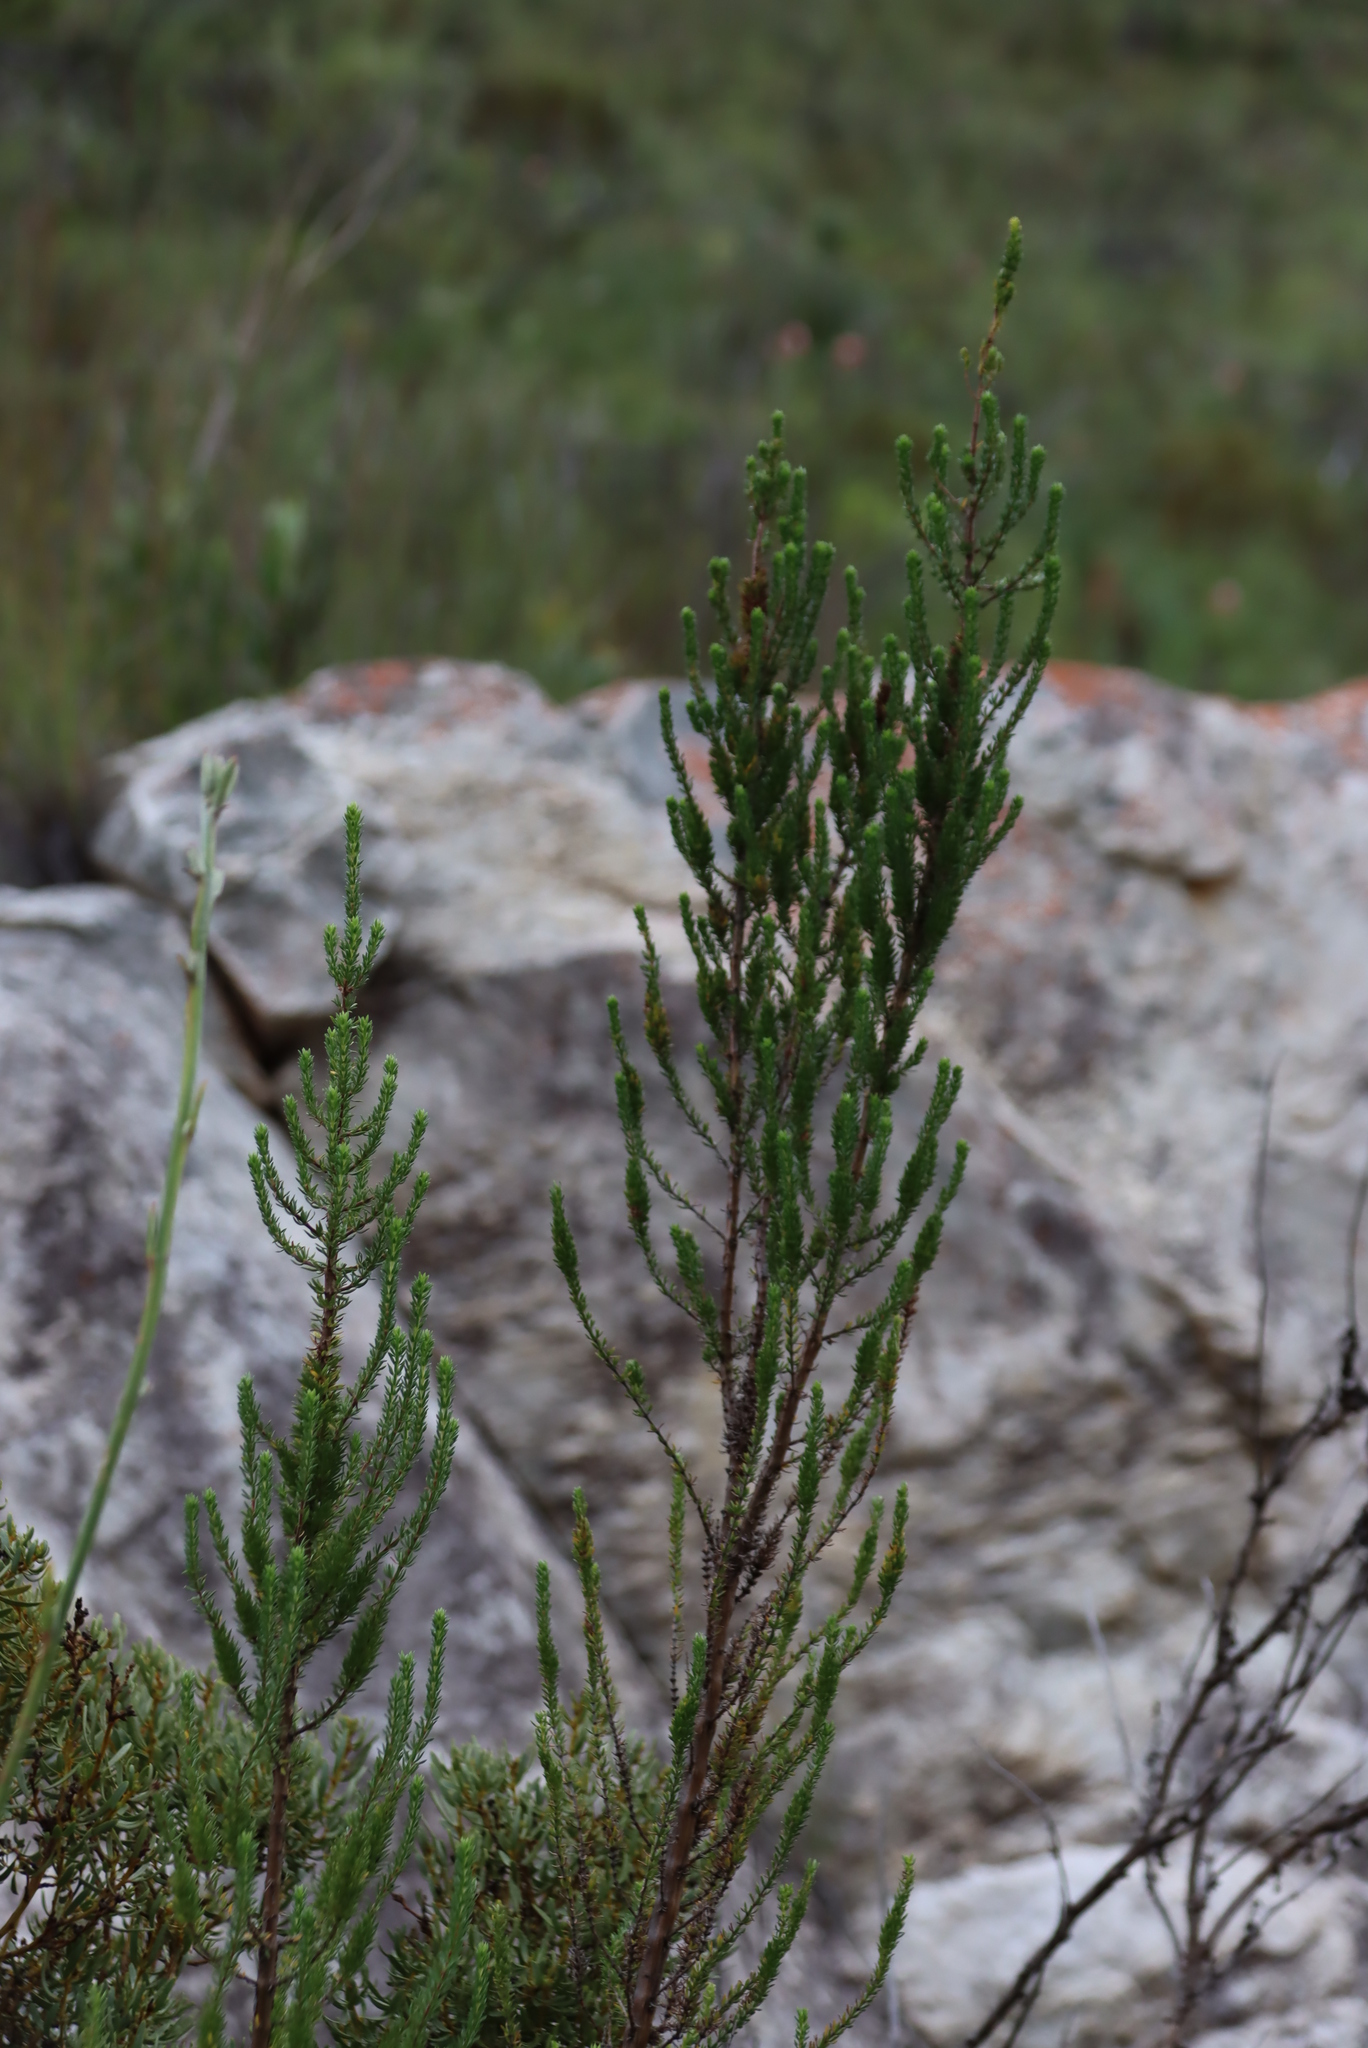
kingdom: Plantae
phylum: Tracheophyta
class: Magnoliopsida
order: Gentianales
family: Rubiaceae
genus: Anthospermum
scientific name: Anthospermum aethiopicum
